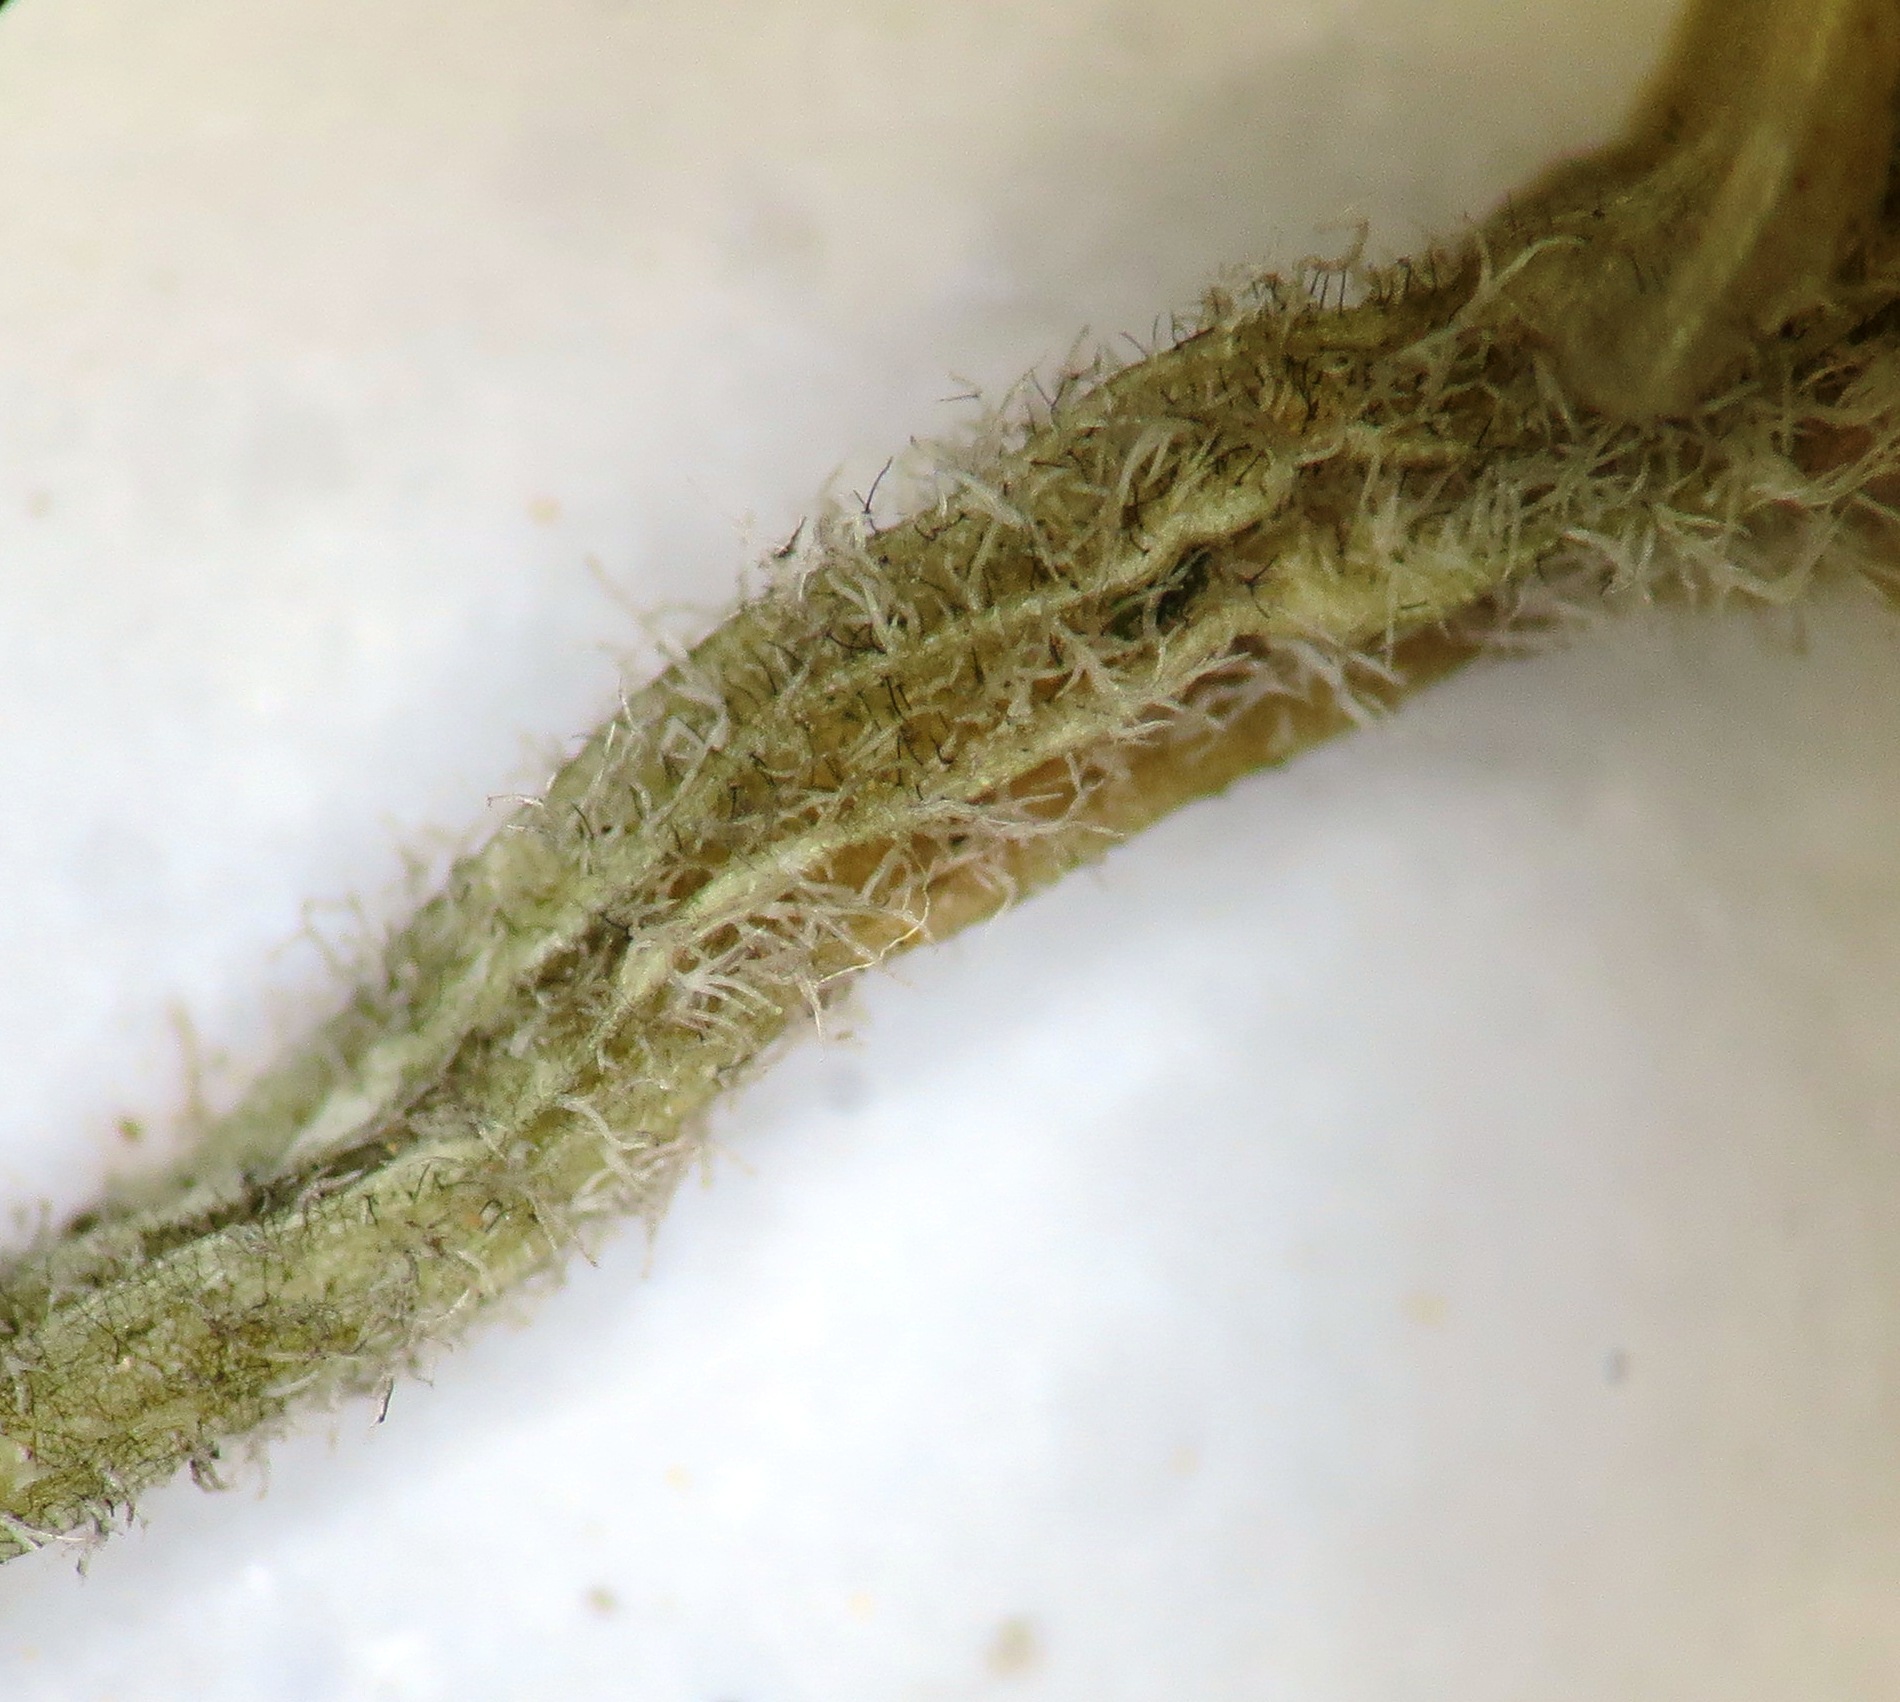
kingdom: Plantae
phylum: Tracheophyta
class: Magnoliopsida
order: Ericales
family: Ericaceae
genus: Erica
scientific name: Erica lanipes
